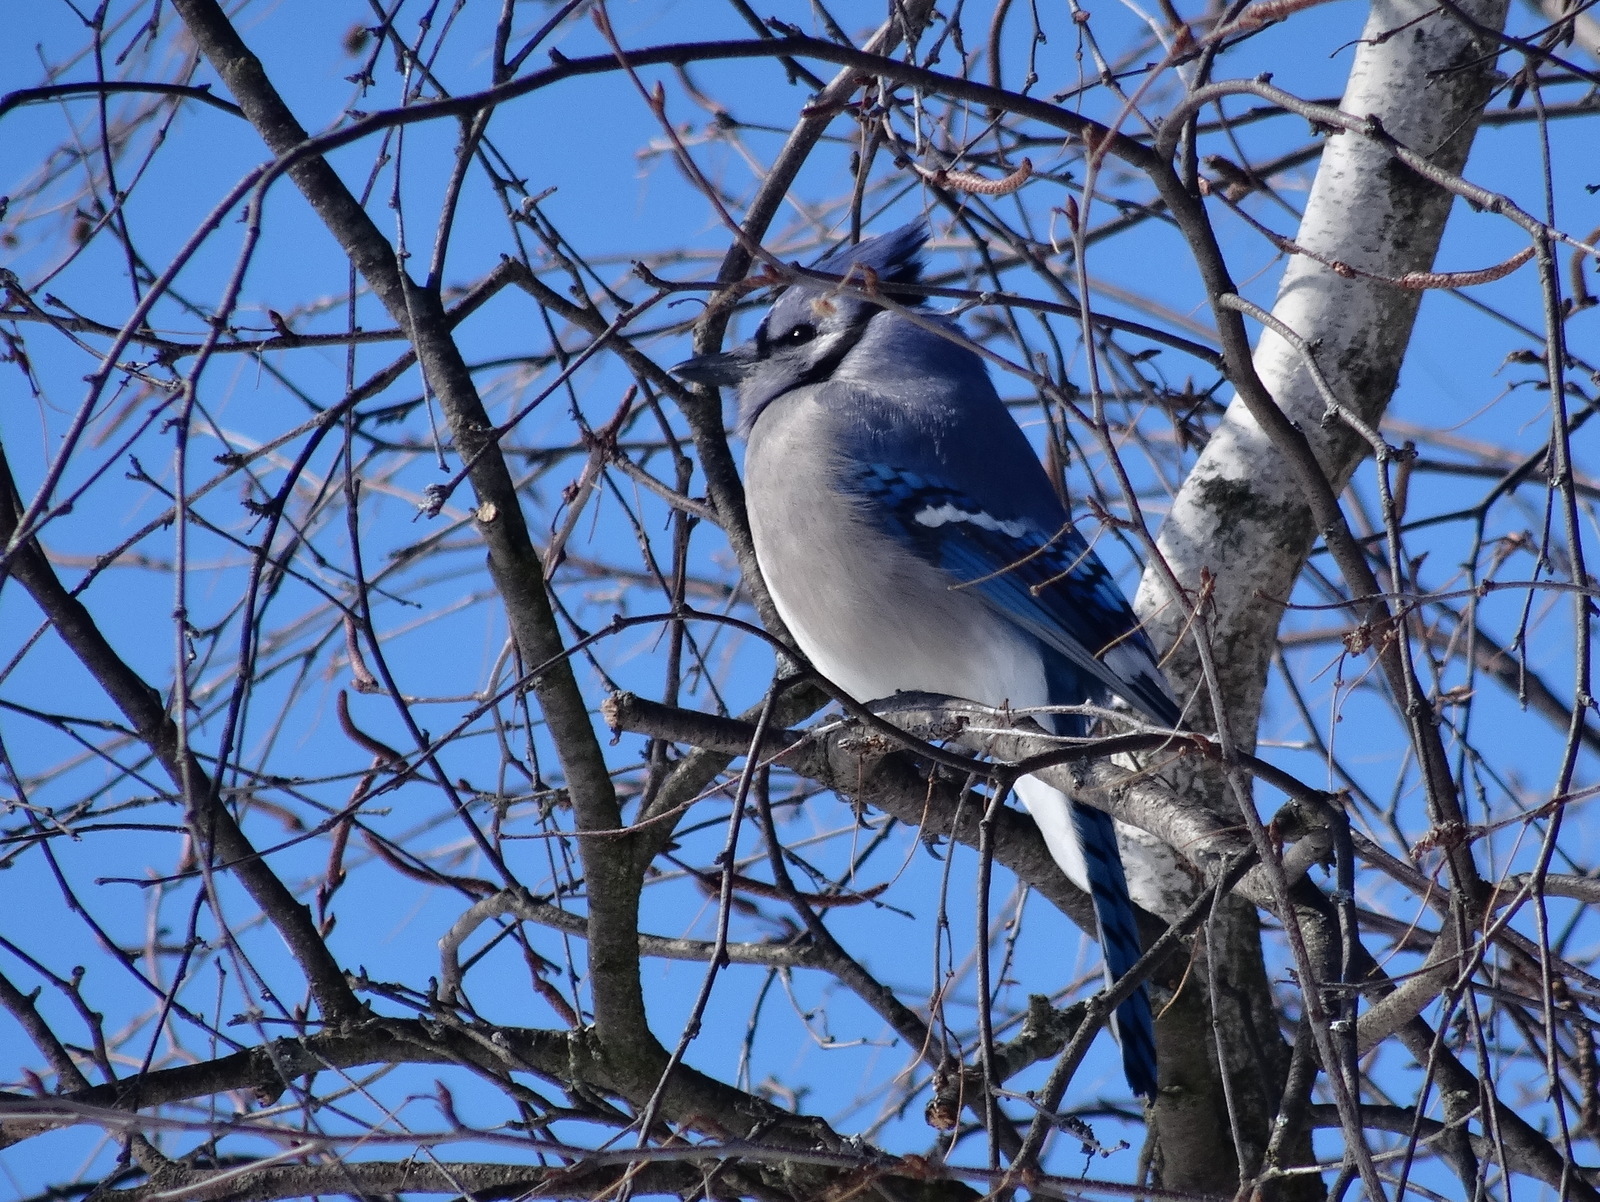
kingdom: Animalia
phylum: Chordata
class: Aves
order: Passeriformes
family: Corvidae
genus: Cyanocitta
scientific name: Cyanocitta cristata
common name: Blue jay
